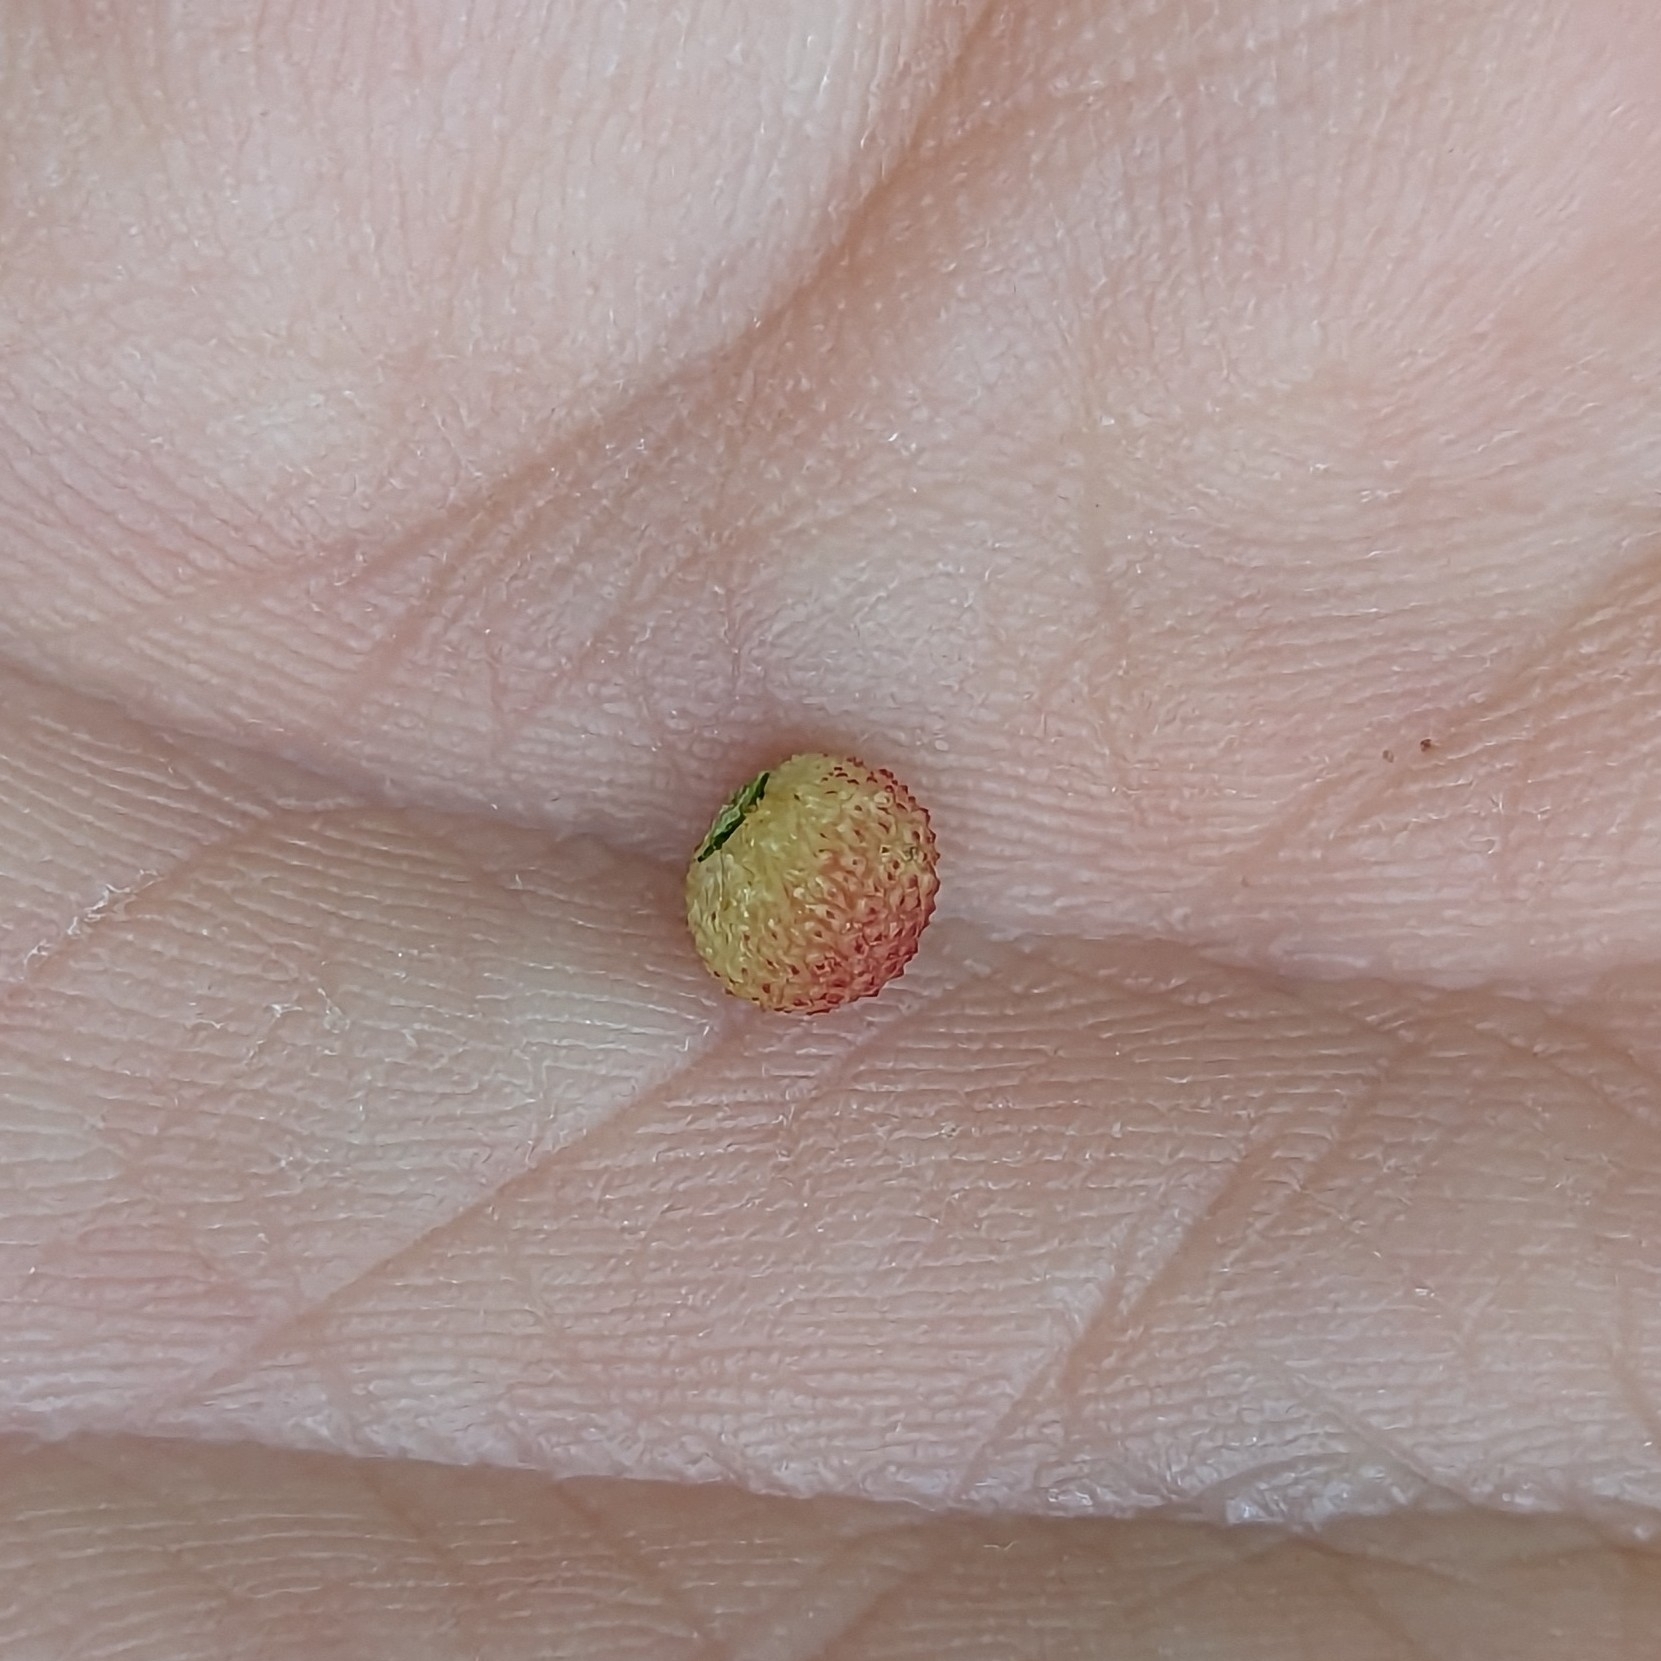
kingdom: Animalia
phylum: Arthropoda
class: Insecta
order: Hymenoptera
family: Cynipidae
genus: Acraspis
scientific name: Acraspis quercushirta
